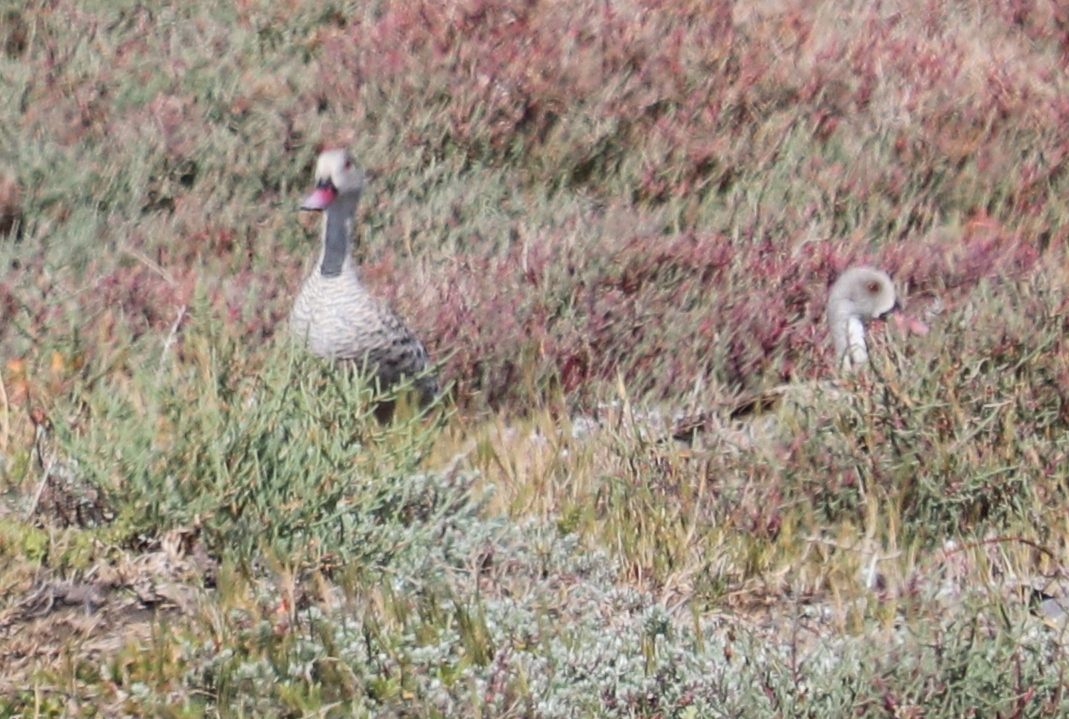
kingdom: Animalia
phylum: Chordata
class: Aves
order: Anseriformes
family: Anatidae
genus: Anas
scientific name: Anas capensis
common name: Cape teal
